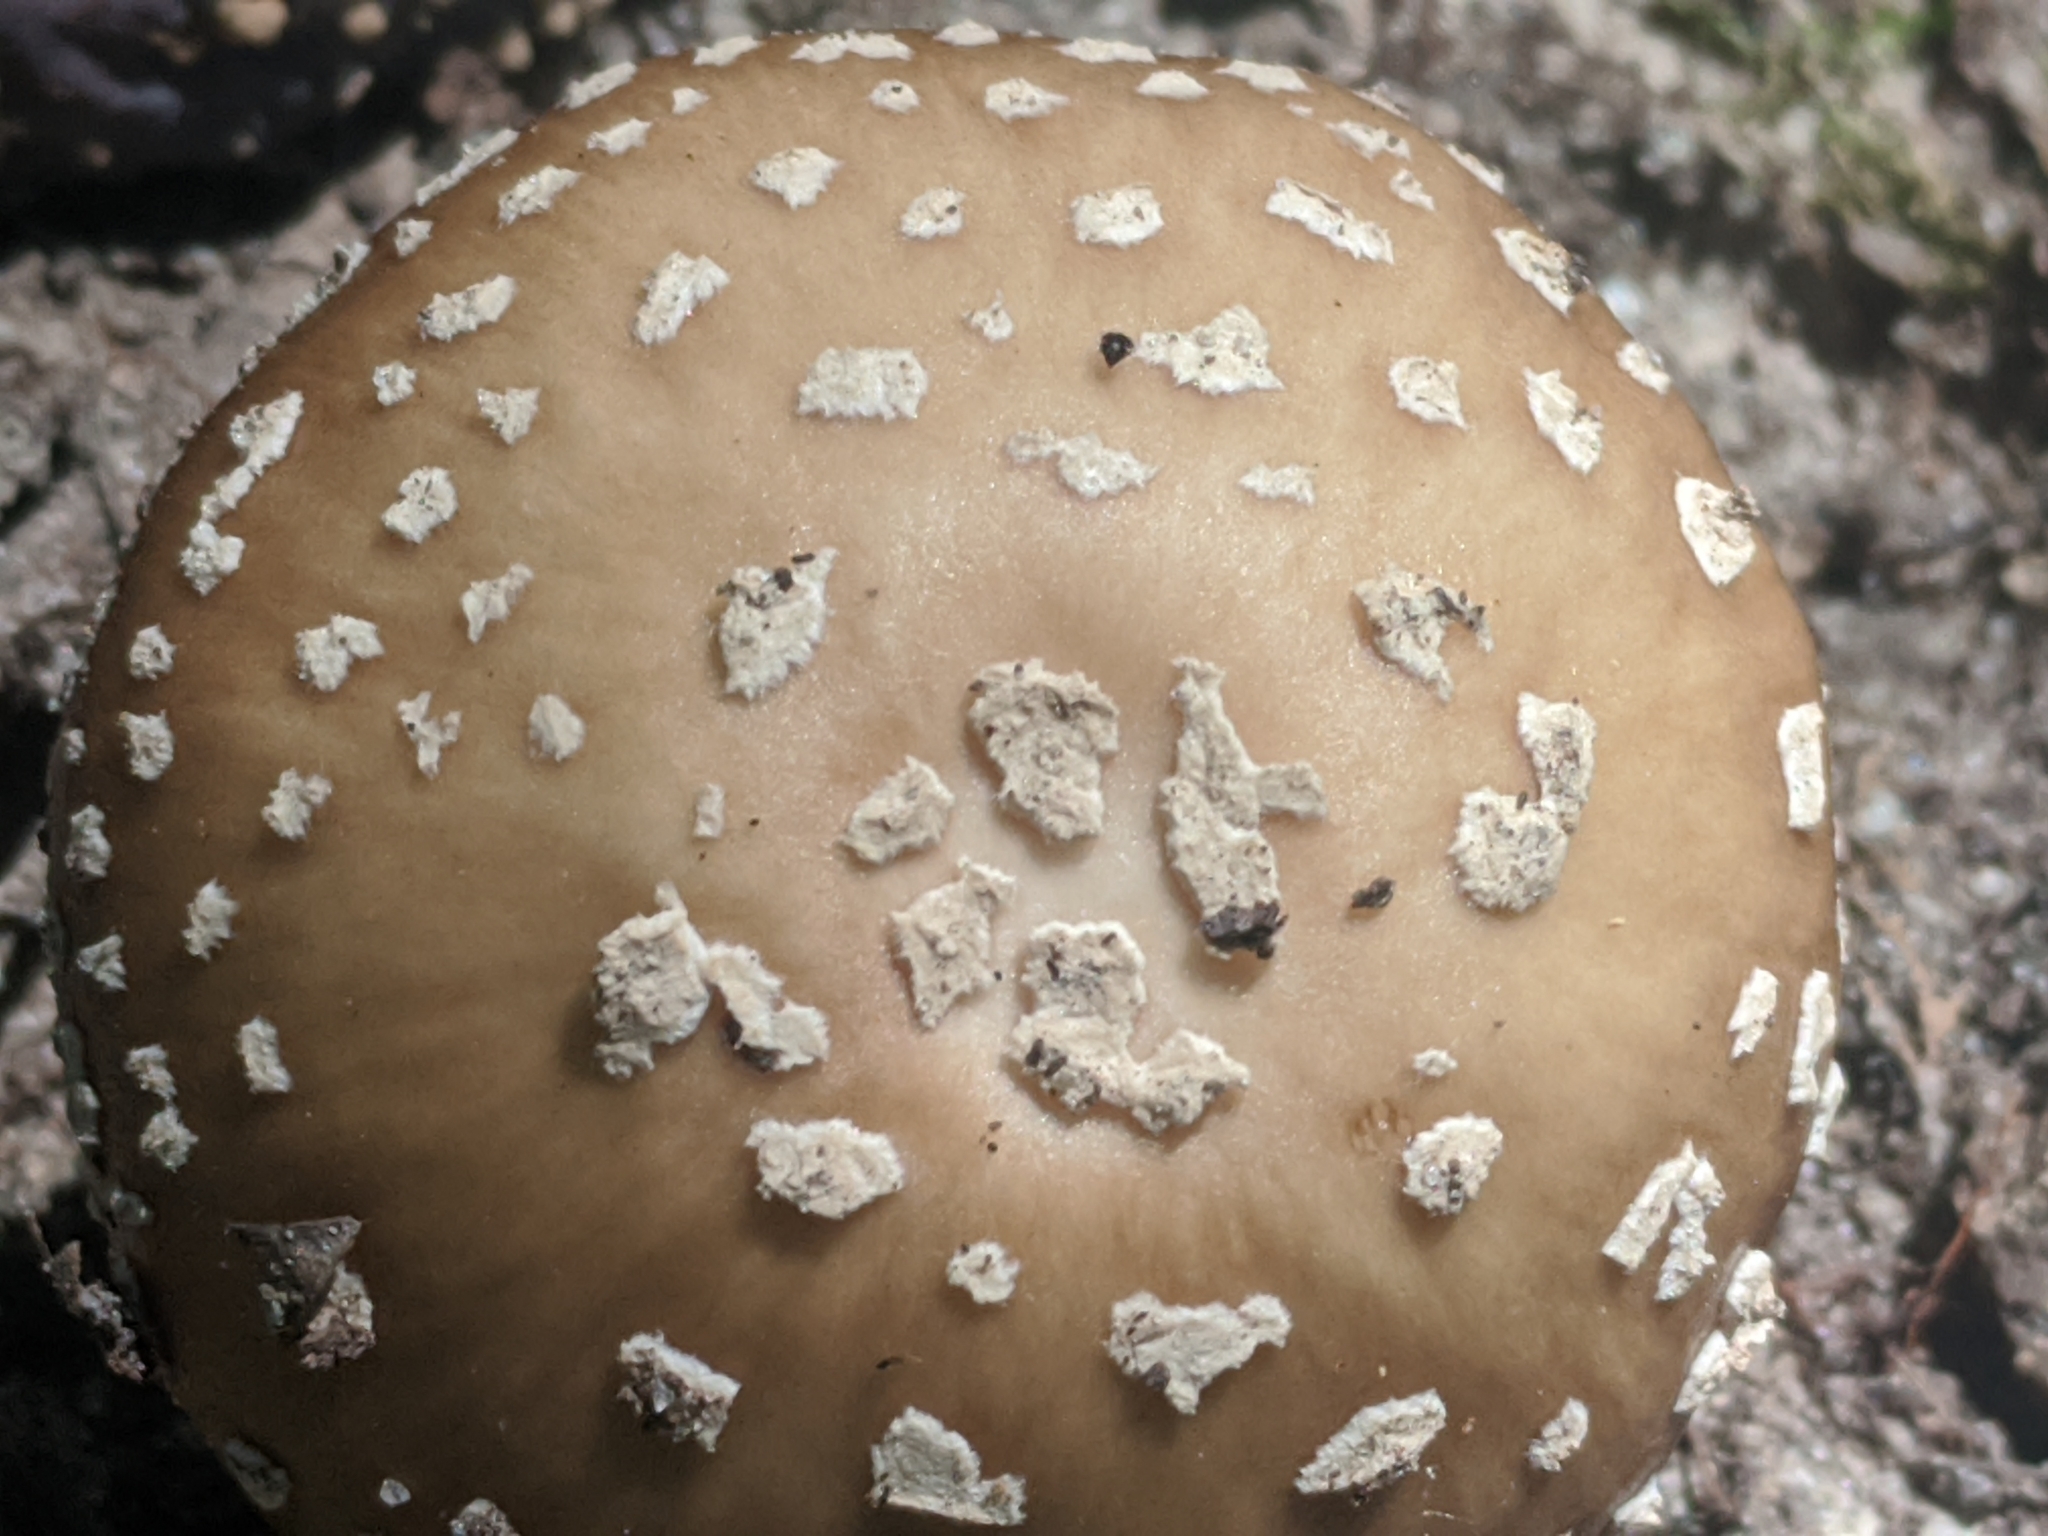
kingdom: Fungi
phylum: Basidiomycota
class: Agaricomycetes
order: Agaricales
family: Amanitaceae
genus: Amanita
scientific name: Amanita pantherina
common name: Panthercap
